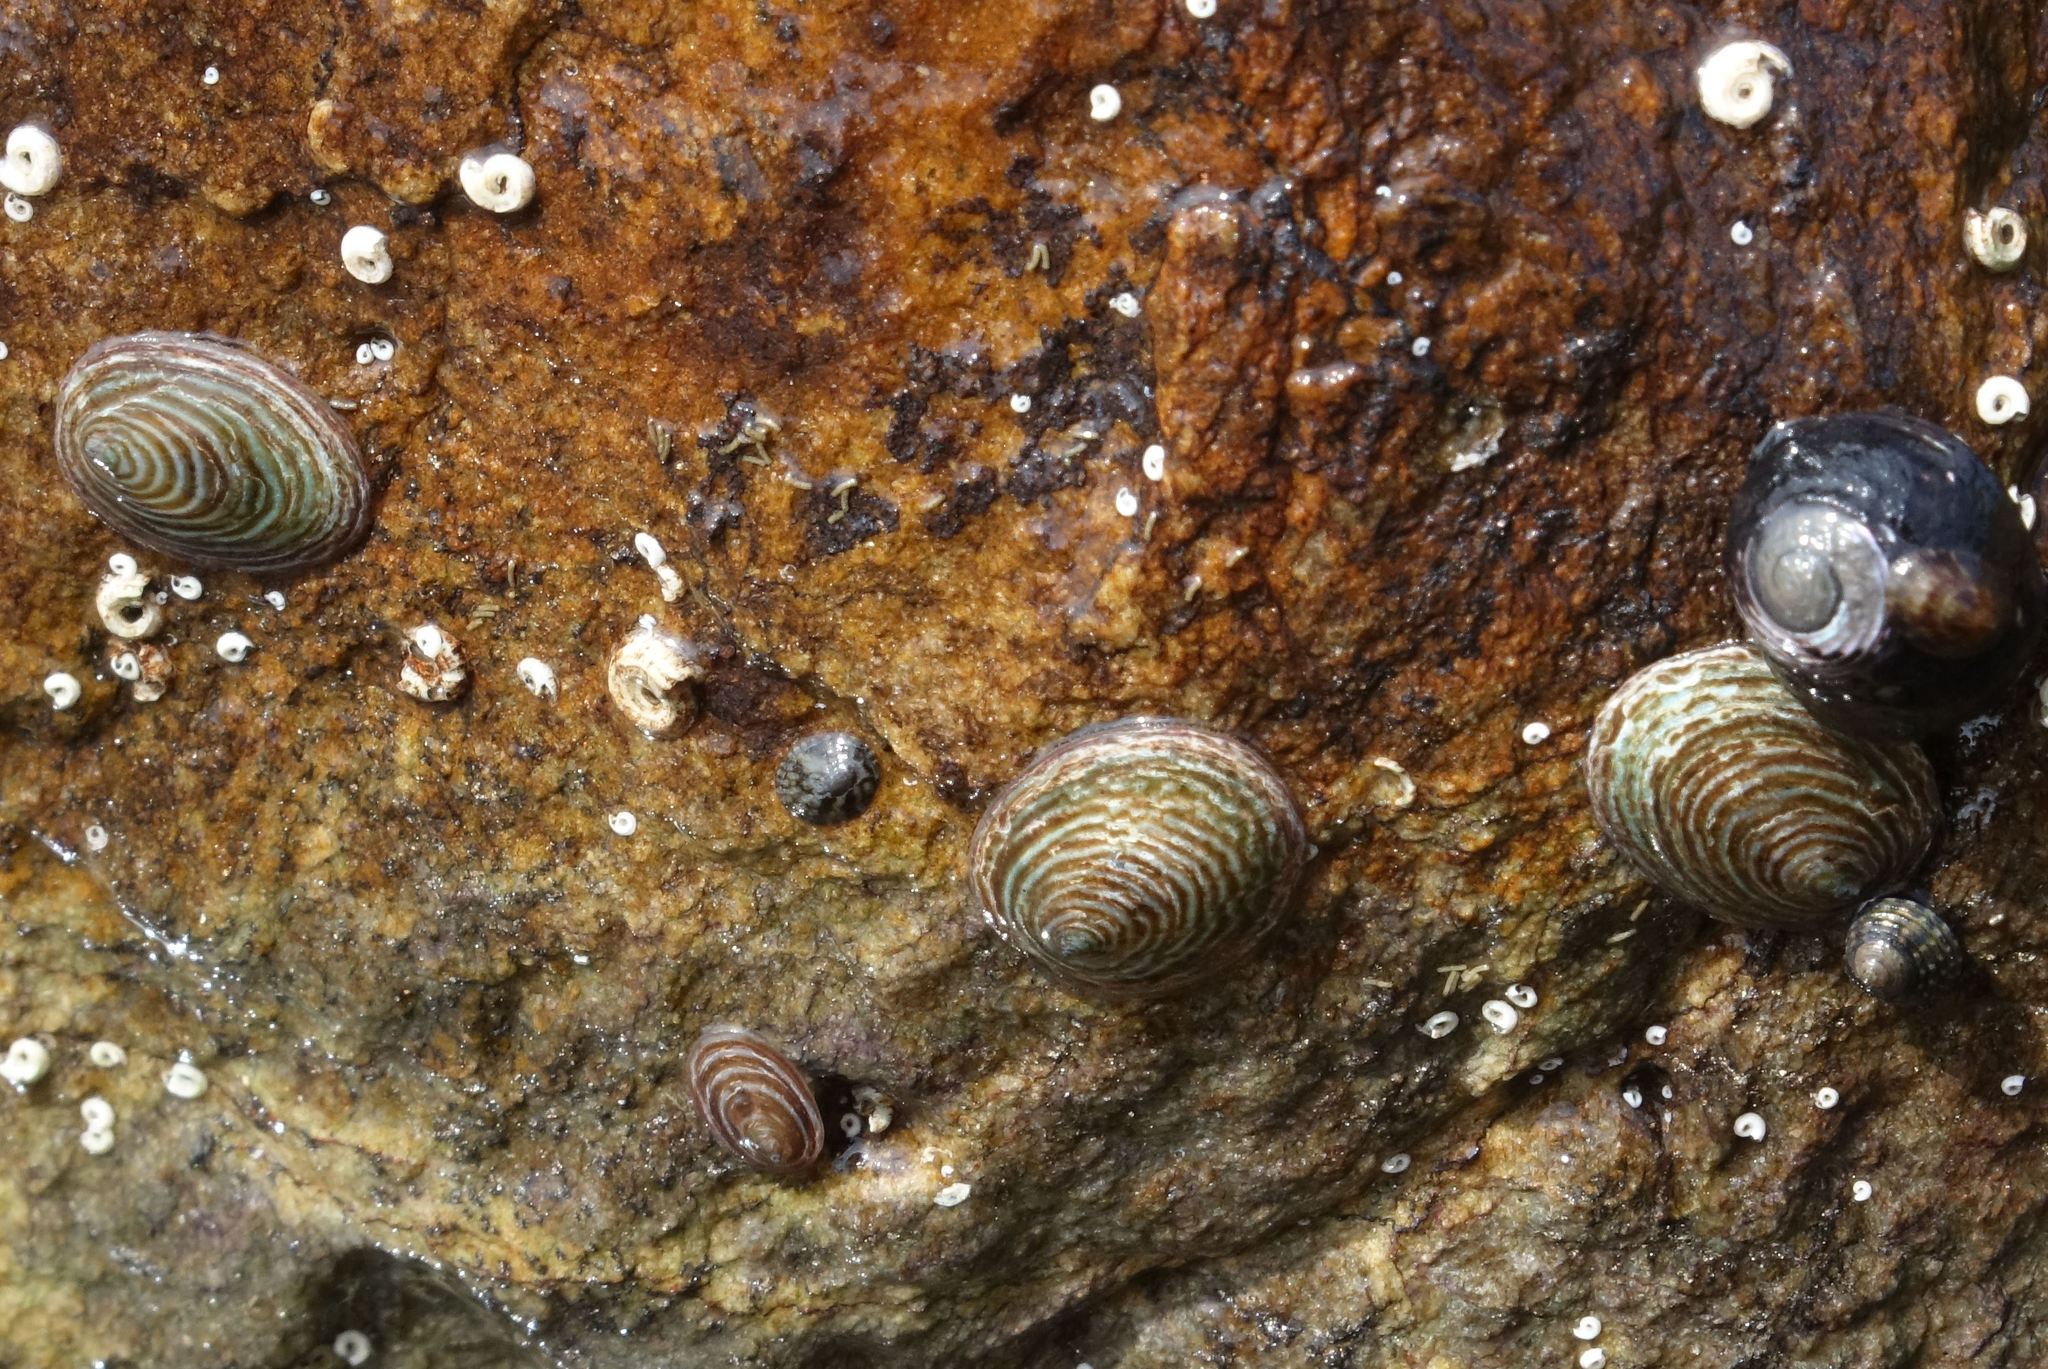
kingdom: Animalia
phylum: Mollusca
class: Gastropoda
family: Lottiidae
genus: Atalacmea
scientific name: Atalacmea fragilis
